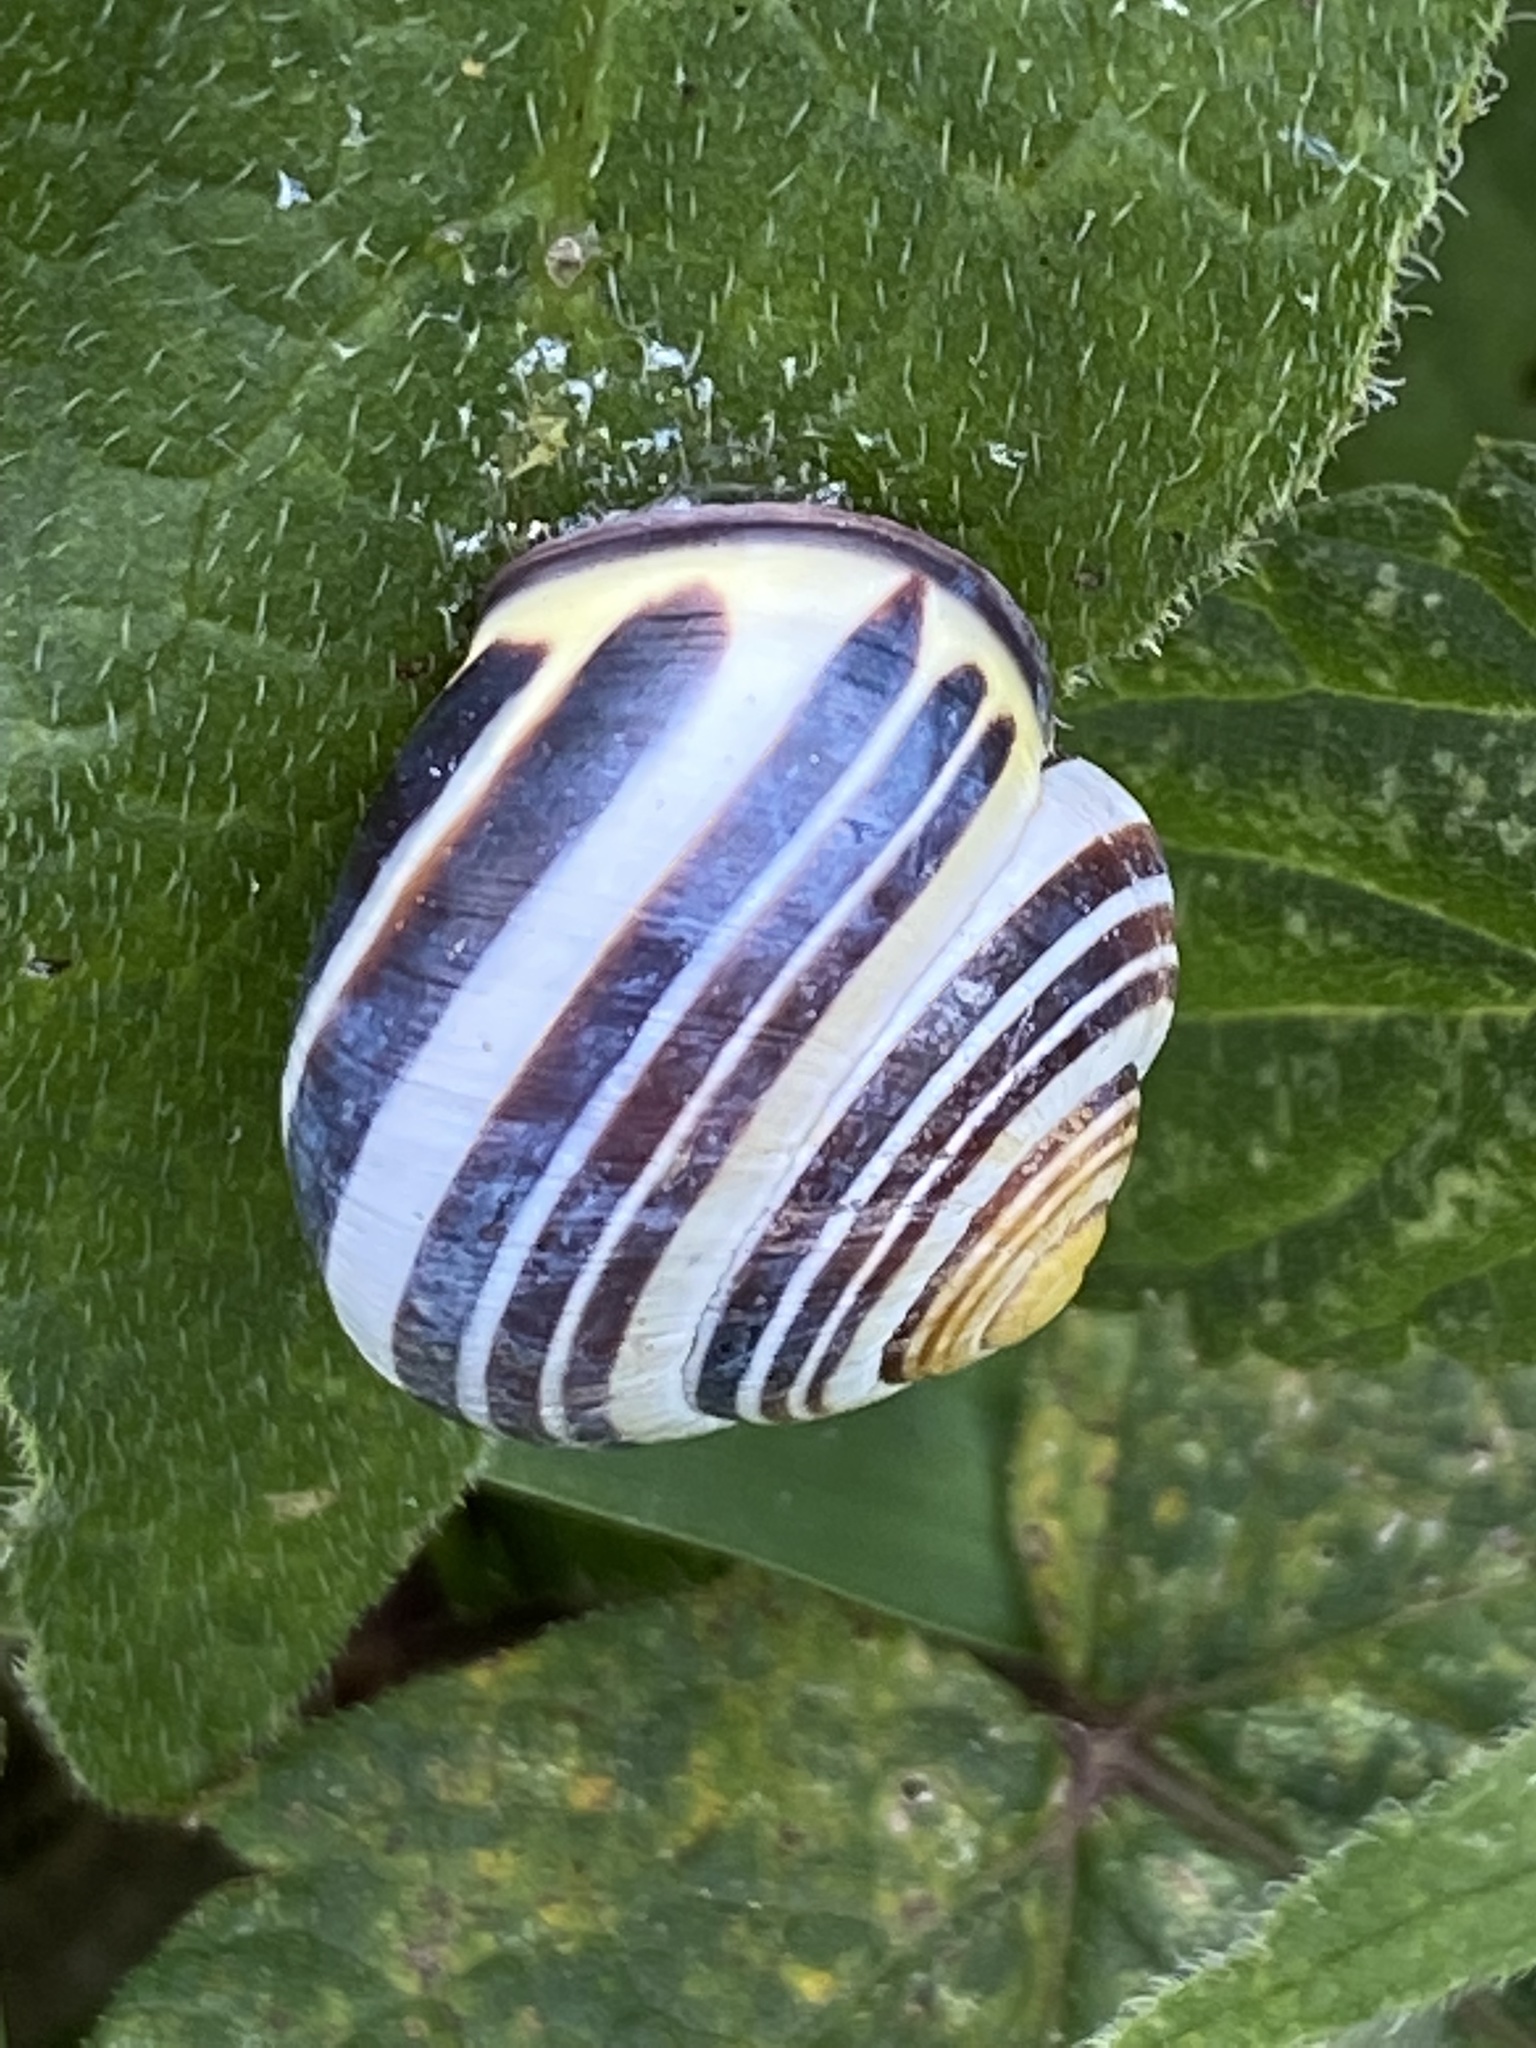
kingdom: Animalia
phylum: Mollusca
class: Gastropoda
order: Stylommatophora
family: Helicidae
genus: Cepaea
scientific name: Cepaea nemoralis
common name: Grovesnail
